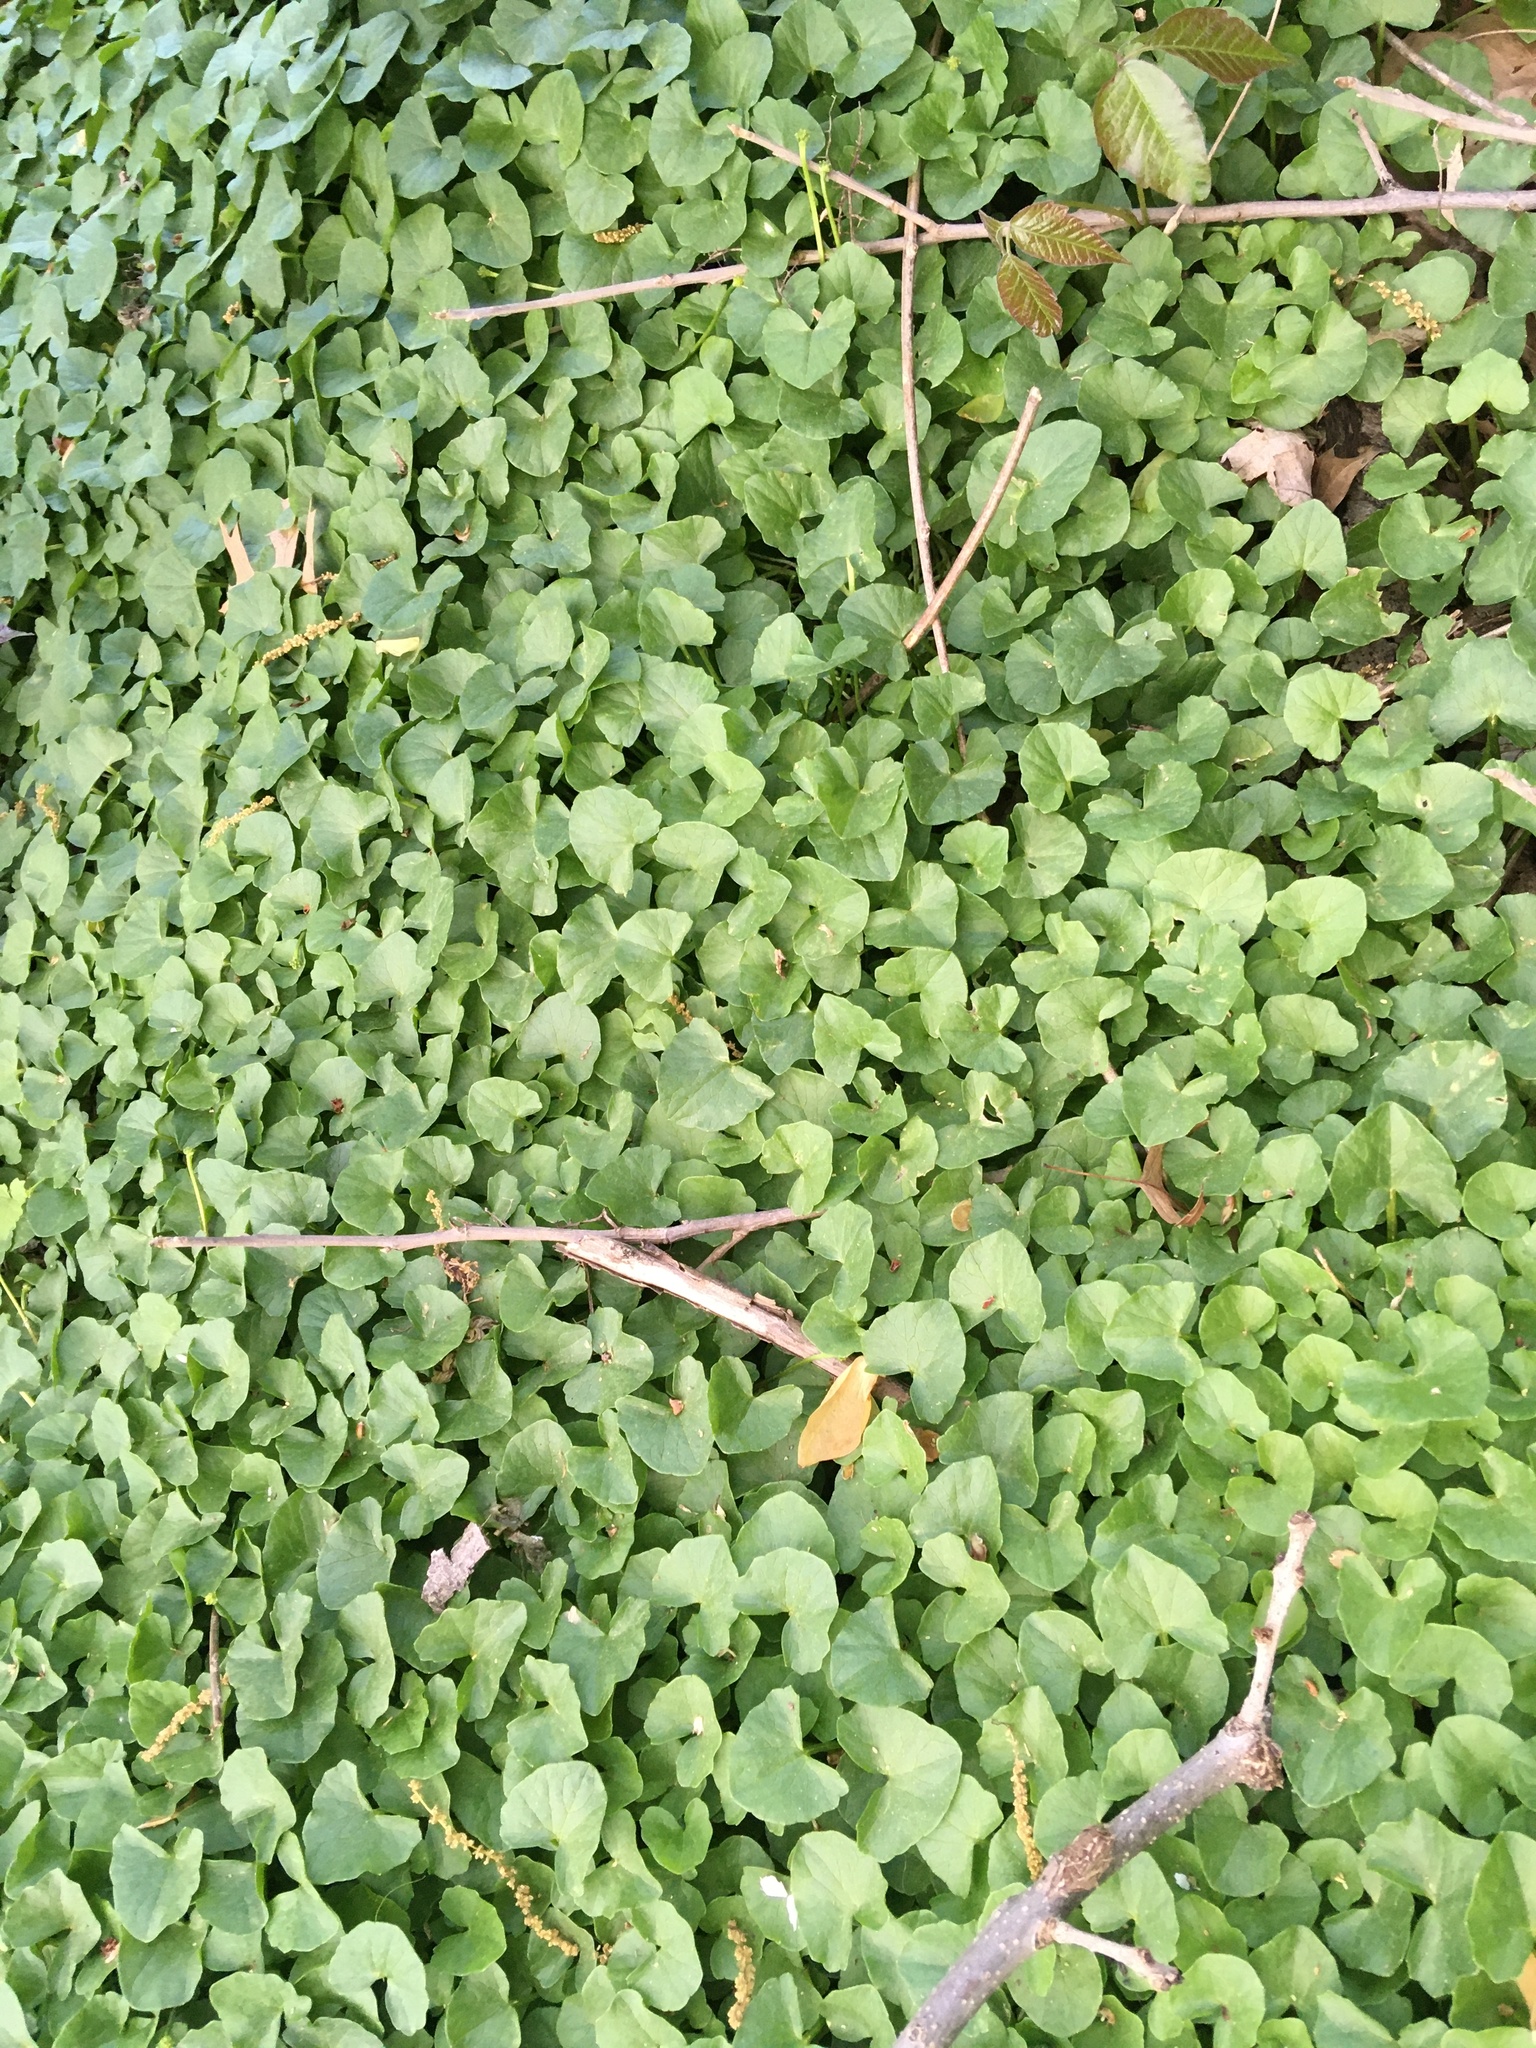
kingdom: Plantae
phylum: Tracheophyta
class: Magnoliopsida
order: Ranunculales
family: Ranunculaceae
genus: Ficaria
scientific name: Ficaria verna
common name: Lesser celandine
